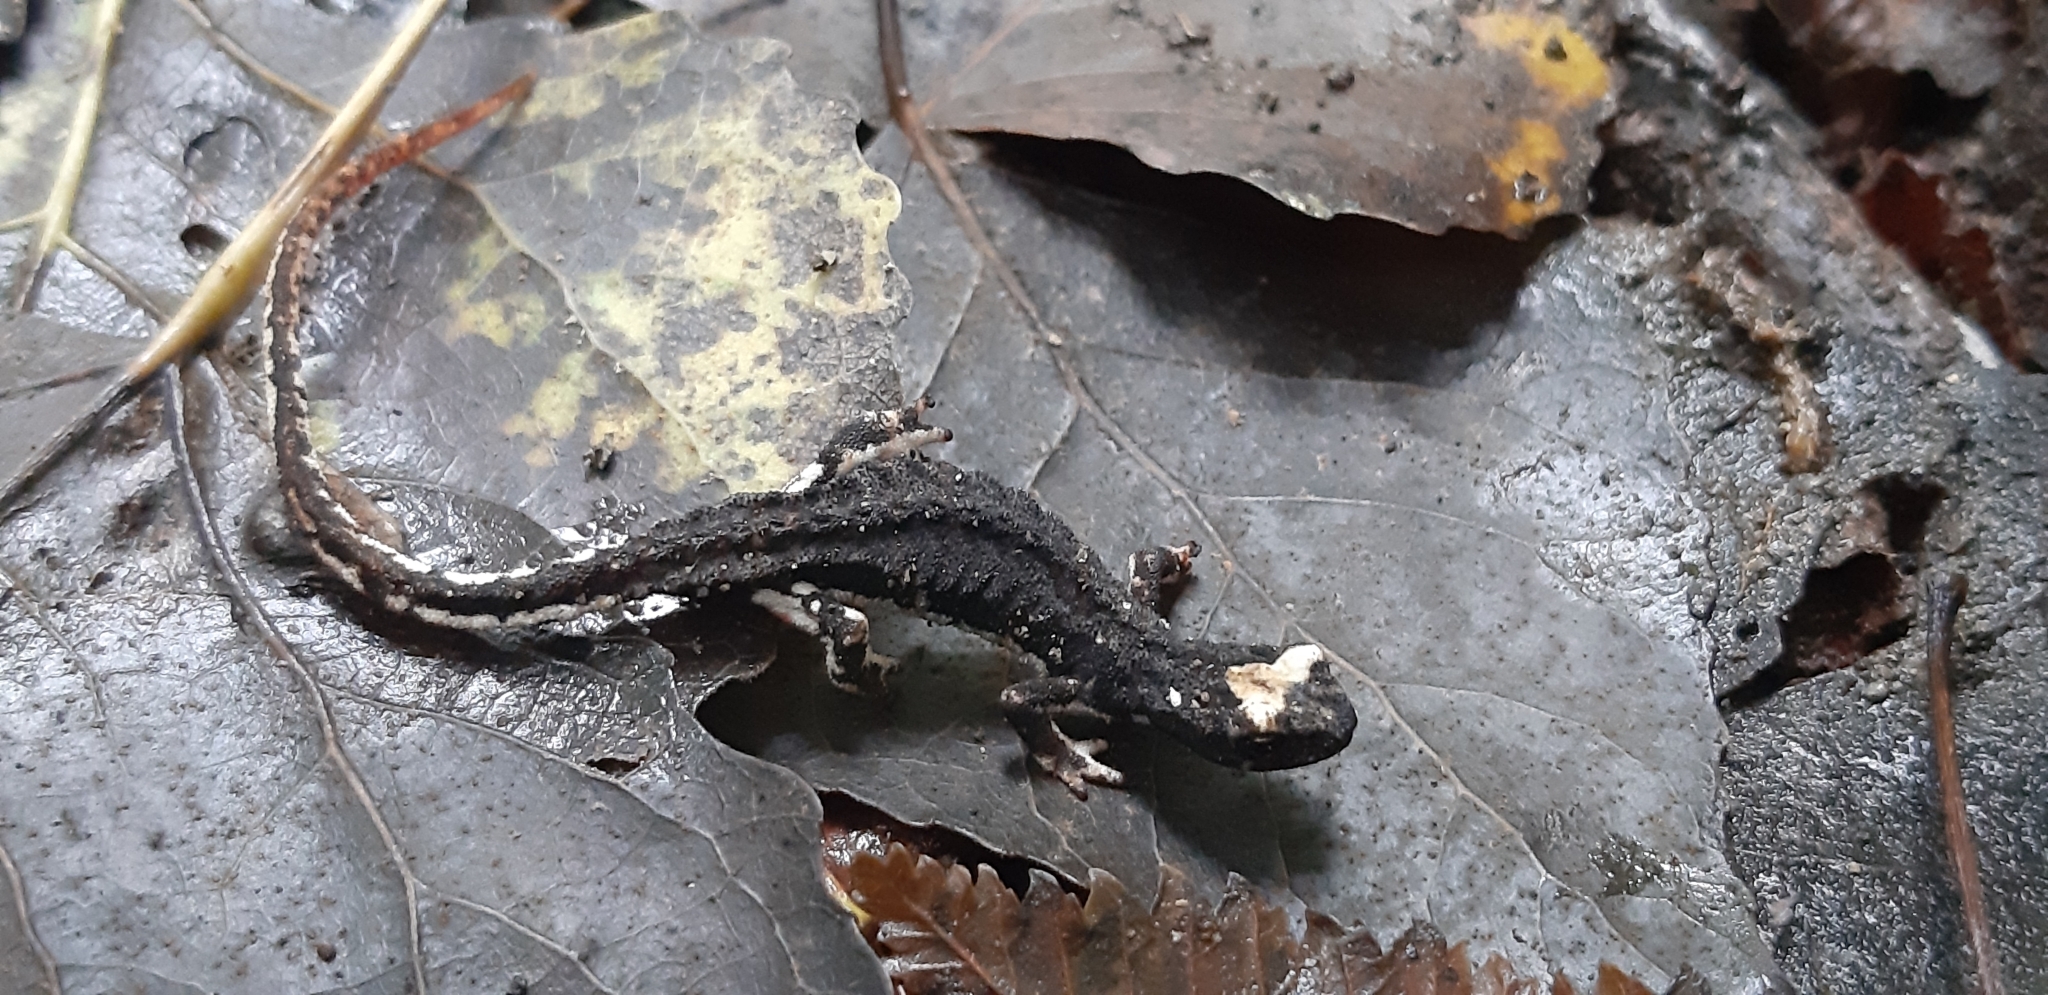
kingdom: Animalia
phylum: Chordata
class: Amphibia
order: Caudata
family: Salamandridae
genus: Salamandrina
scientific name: Salamandrina perspicillata
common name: Northern spectacled salamander
